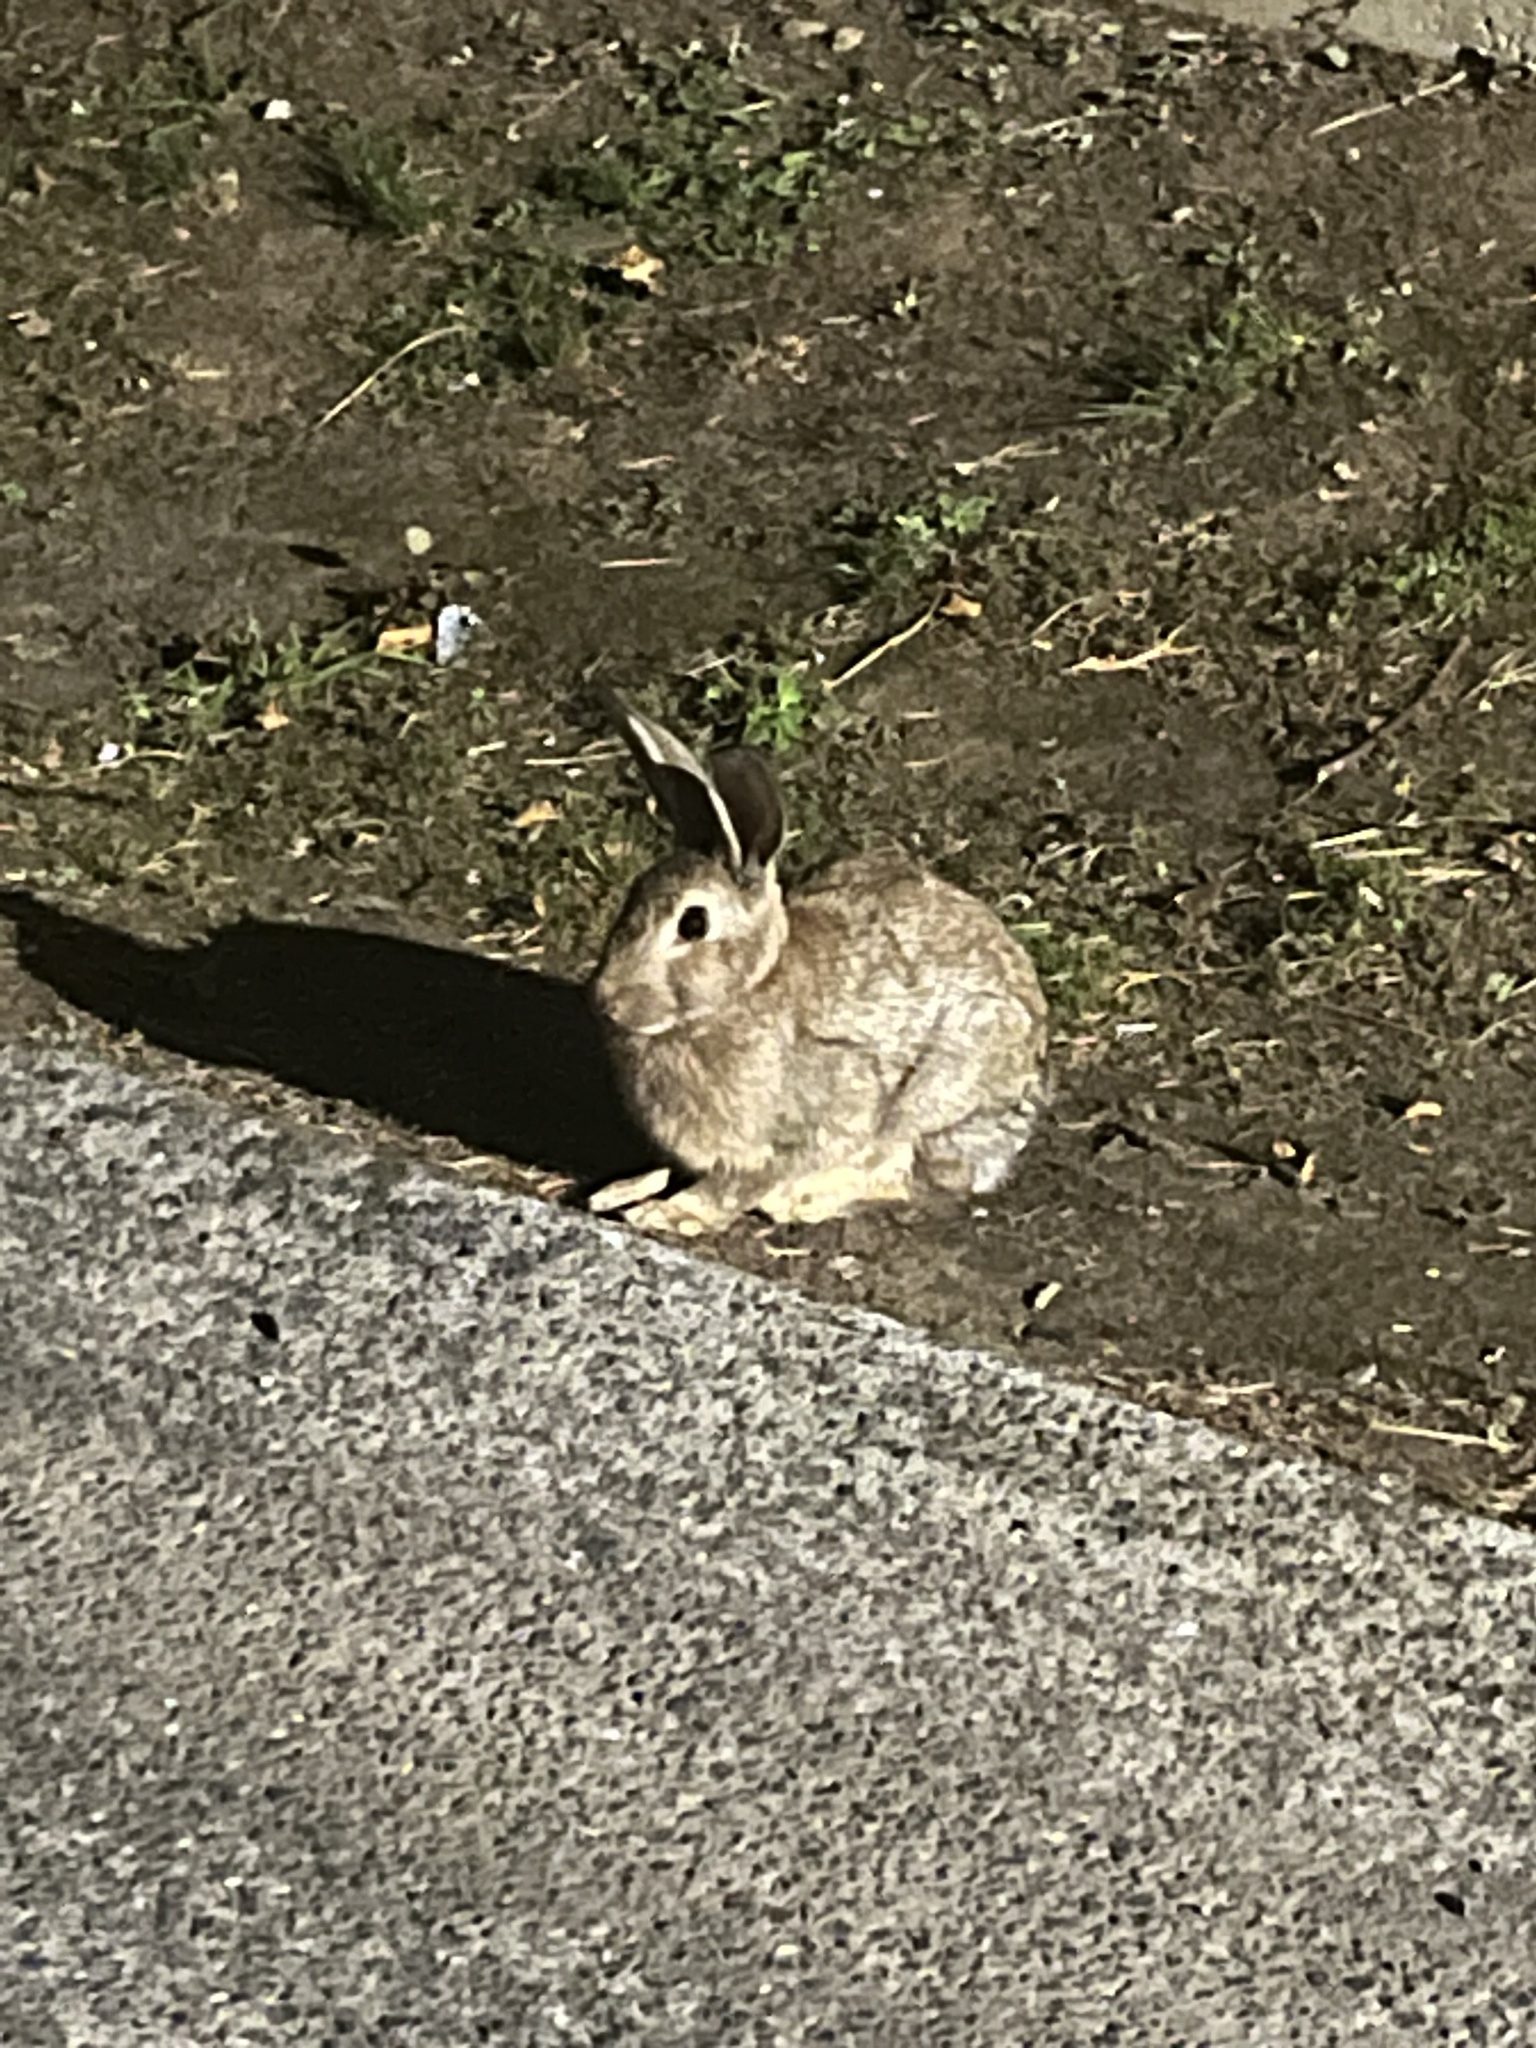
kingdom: Animalia
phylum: Chordata
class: Mammalia
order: Lagomorpha
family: Leporidae
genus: Oryctolagus
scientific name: Oryctolagus cuniculus
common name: European rabbit
